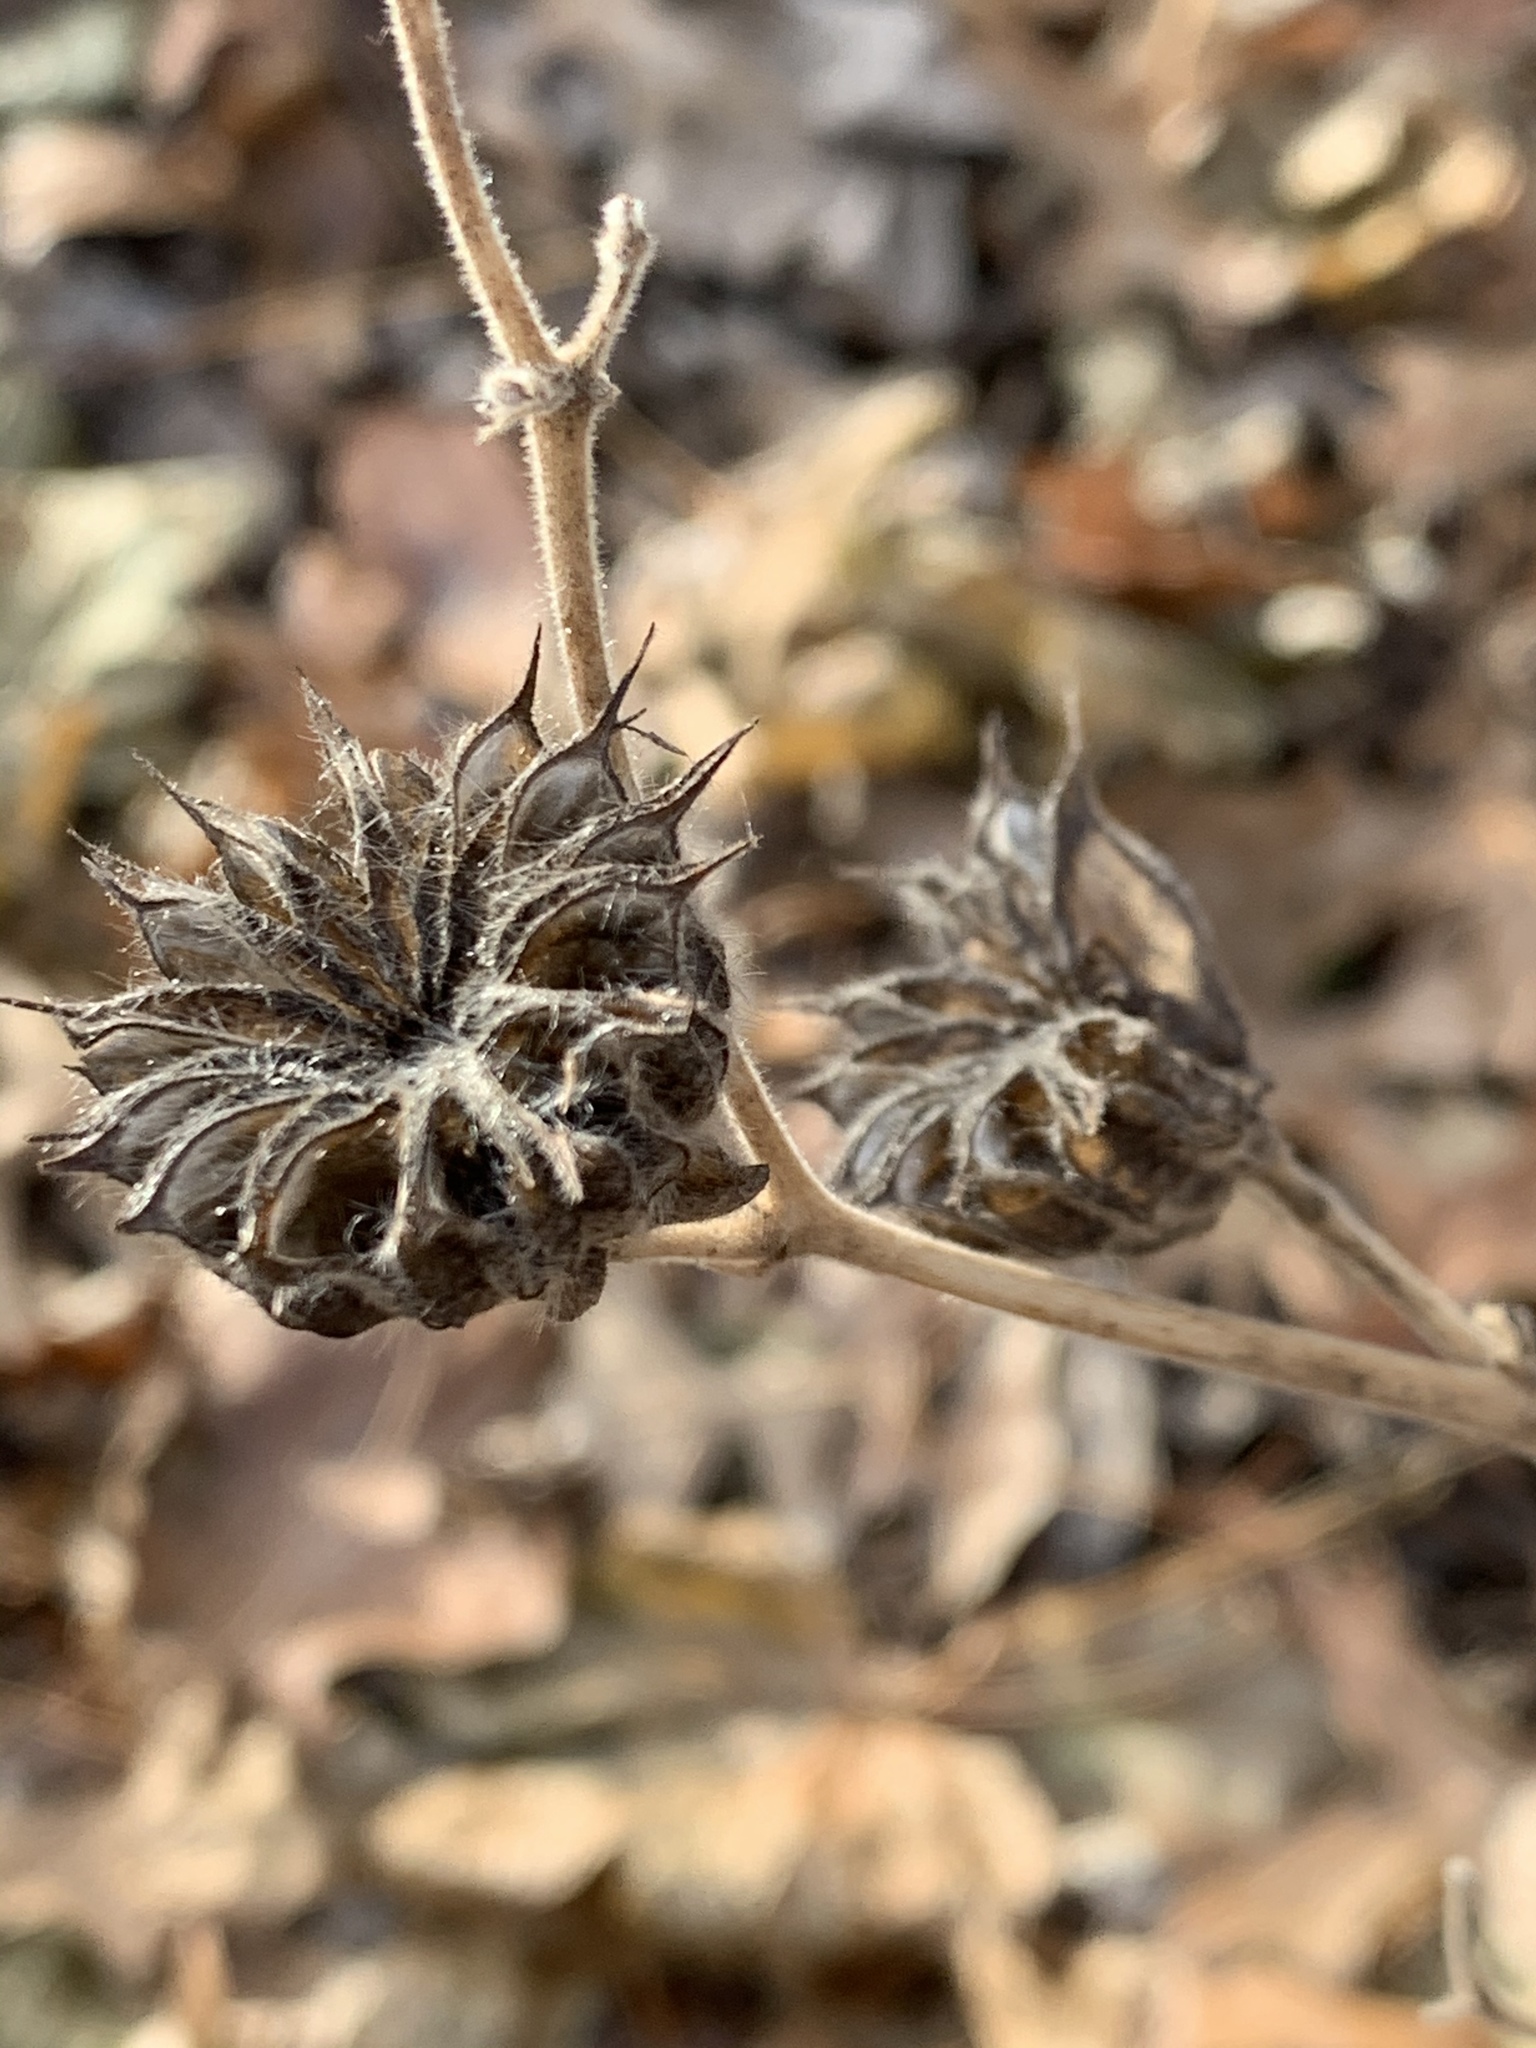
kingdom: Plantae
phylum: Tracheophyta
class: Magnoliopsida
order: Malvales
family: Malvaceae
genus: Abutilon
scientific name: Abutilon theophrasti
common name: Velvetleaf
